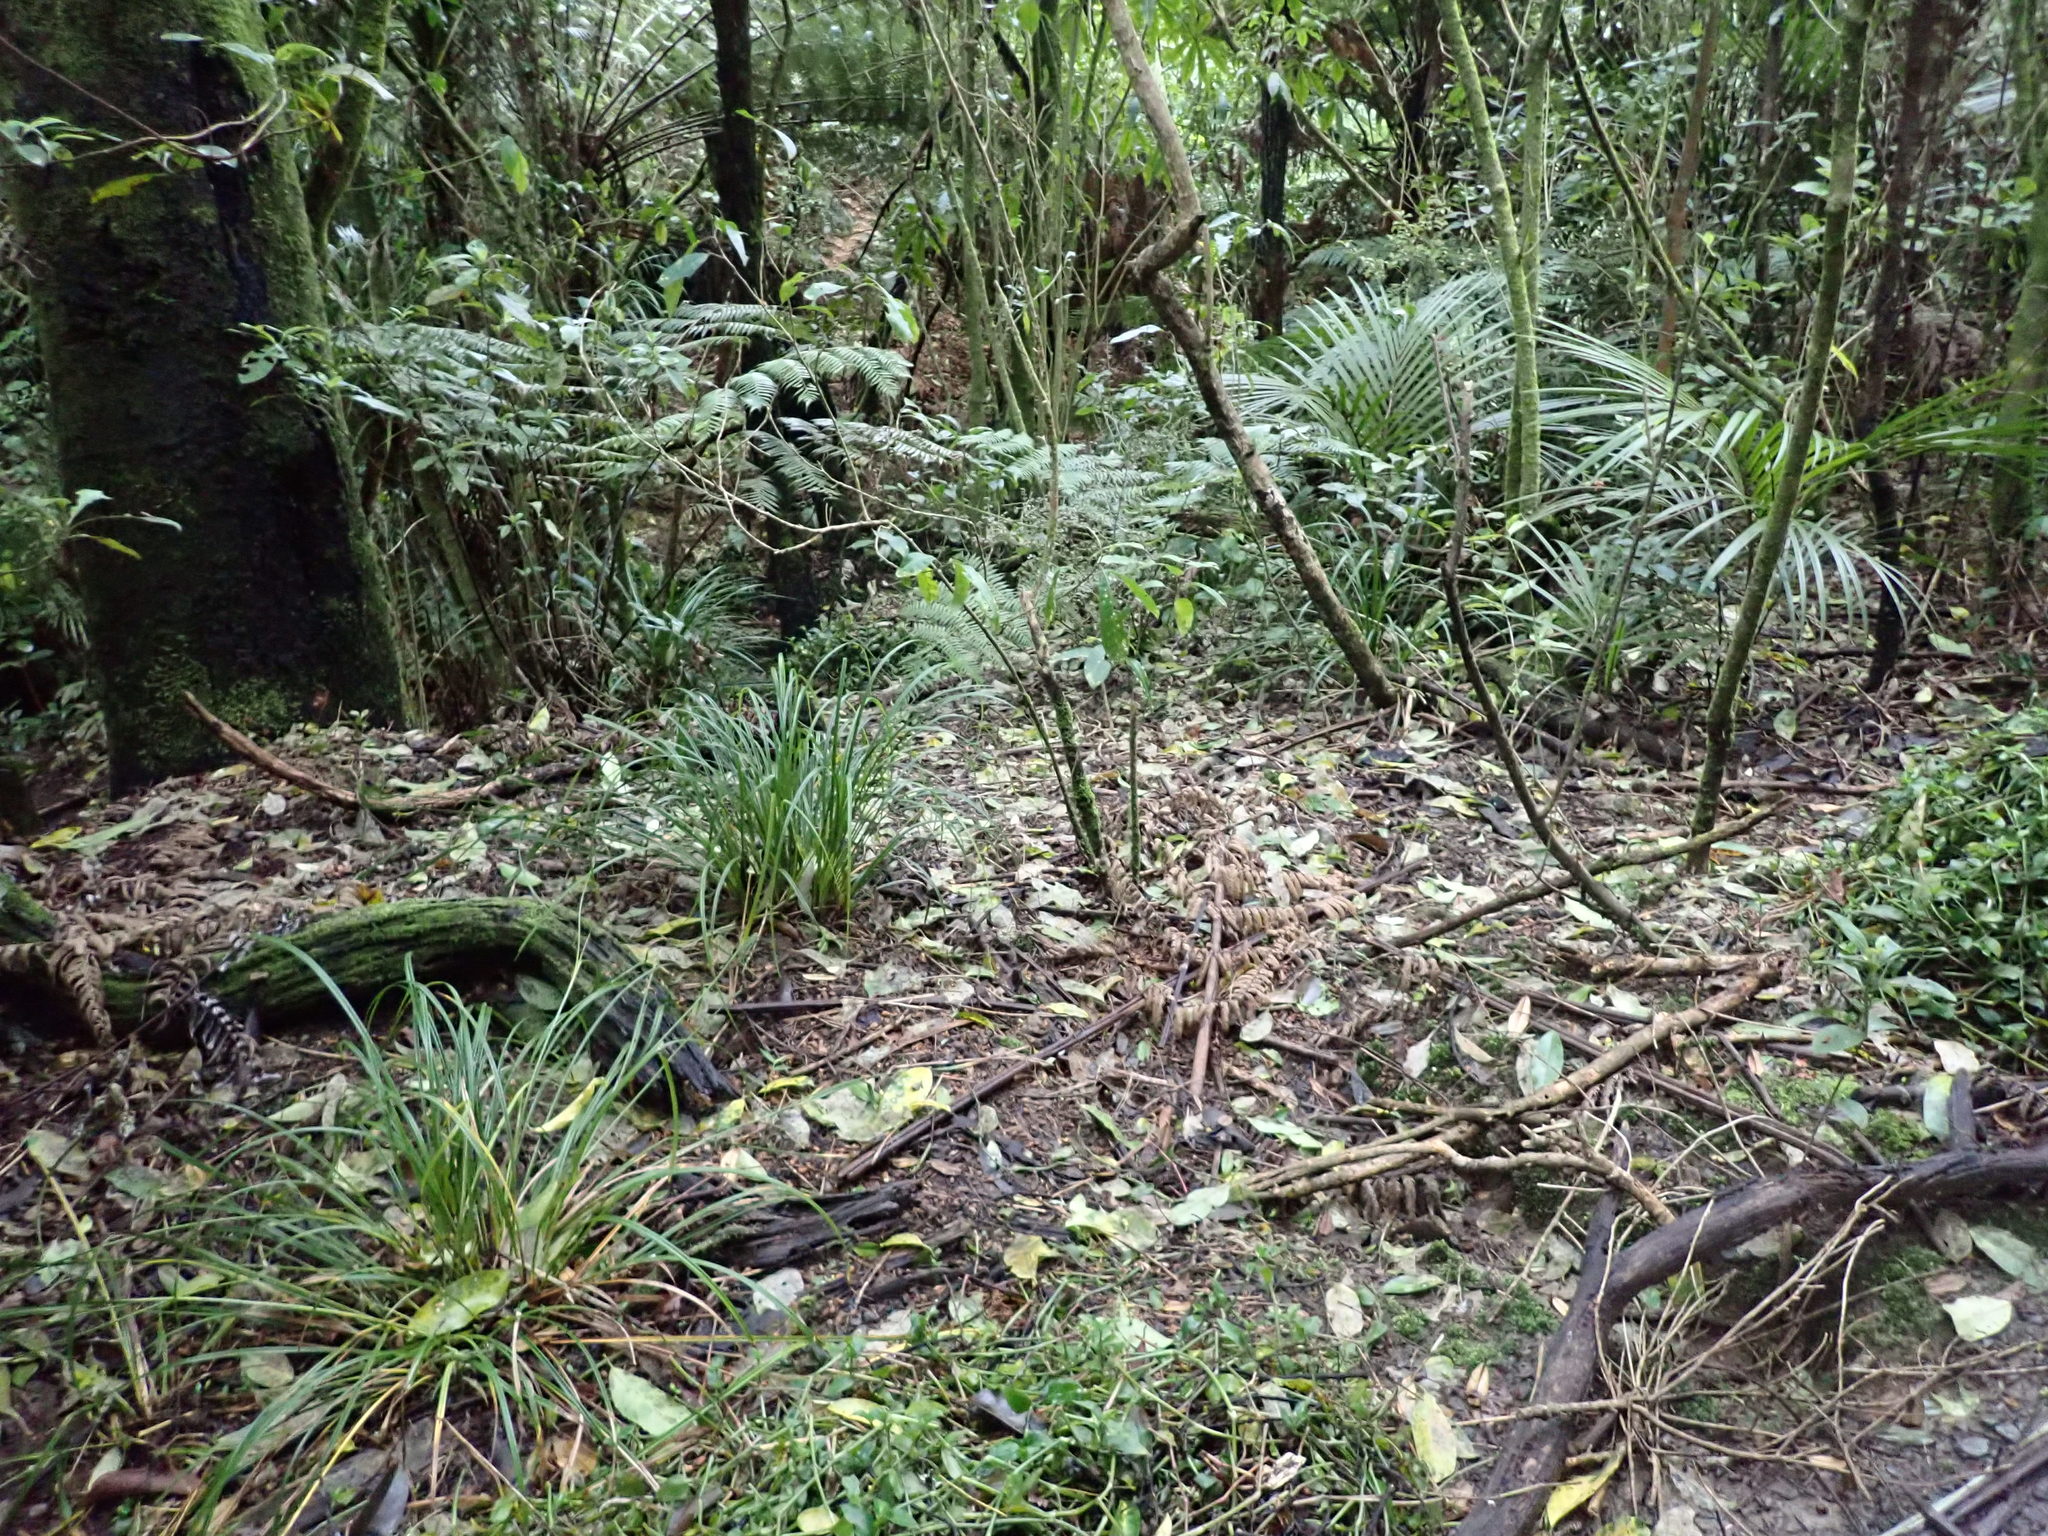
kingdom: Plantae
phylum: Tracheophyta
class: Liliopsida
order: Arecales
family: Arecaceae
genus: Rhopalostylis
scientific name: Rhopalostylis sapida
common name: Feather-duster palm
